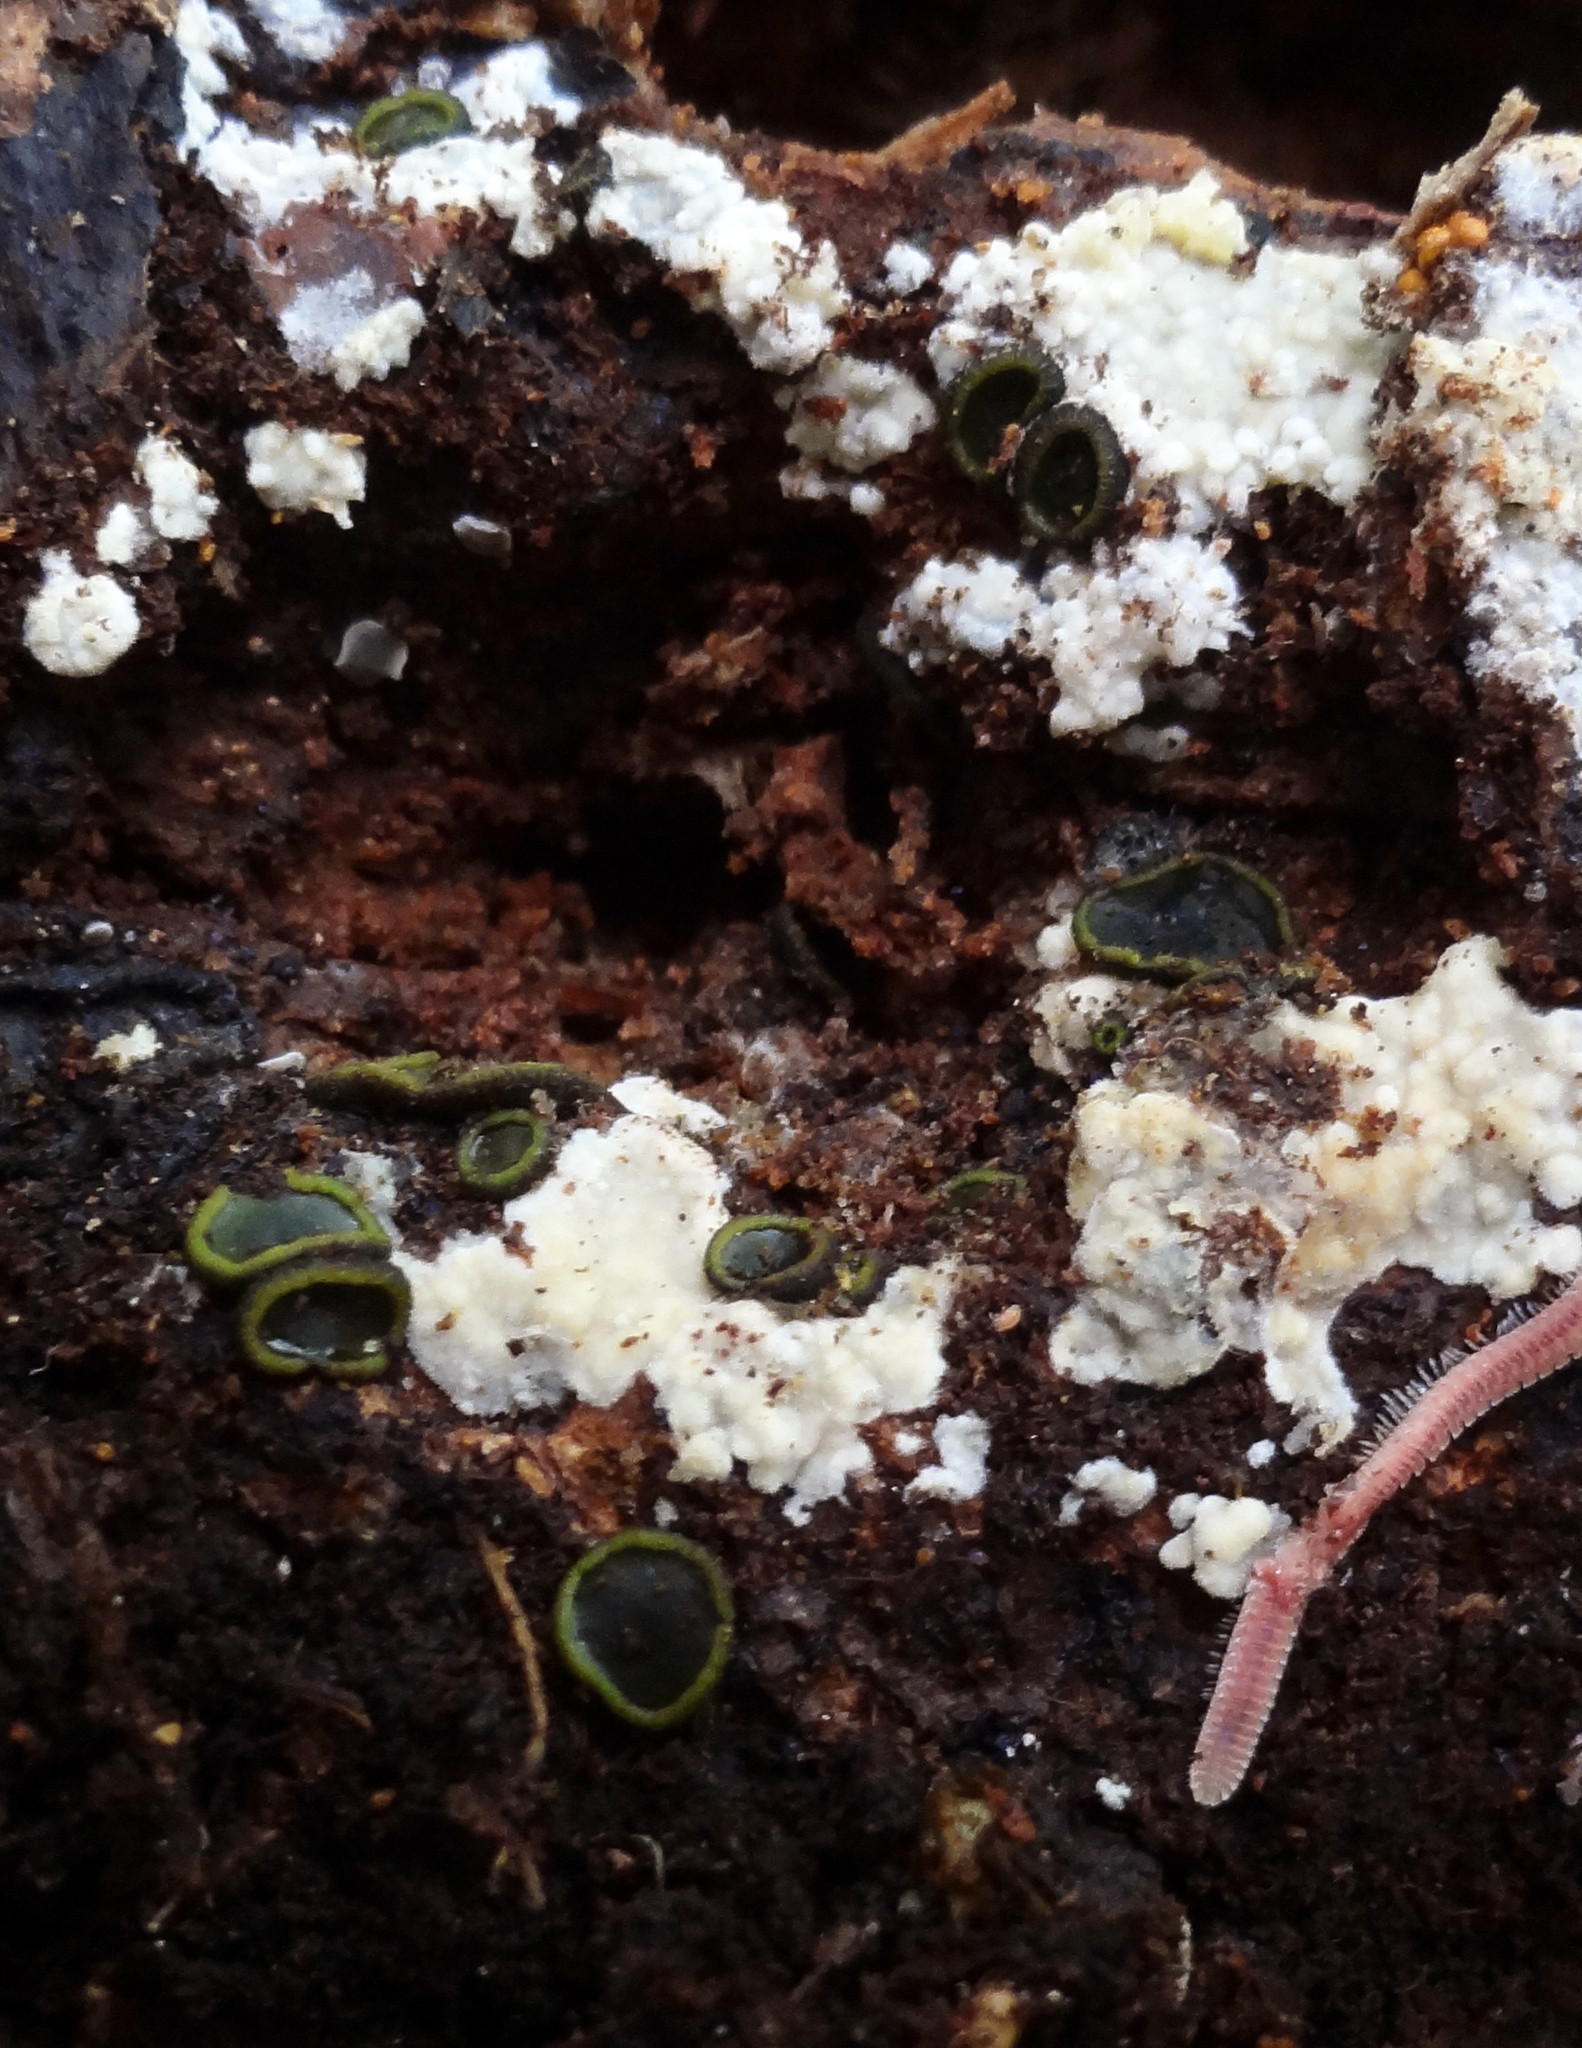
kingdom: Fungi
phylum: Ascomycota
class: Dothideomycetes
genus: Catinella
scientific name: Catinella olivacea
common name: Olive salver
